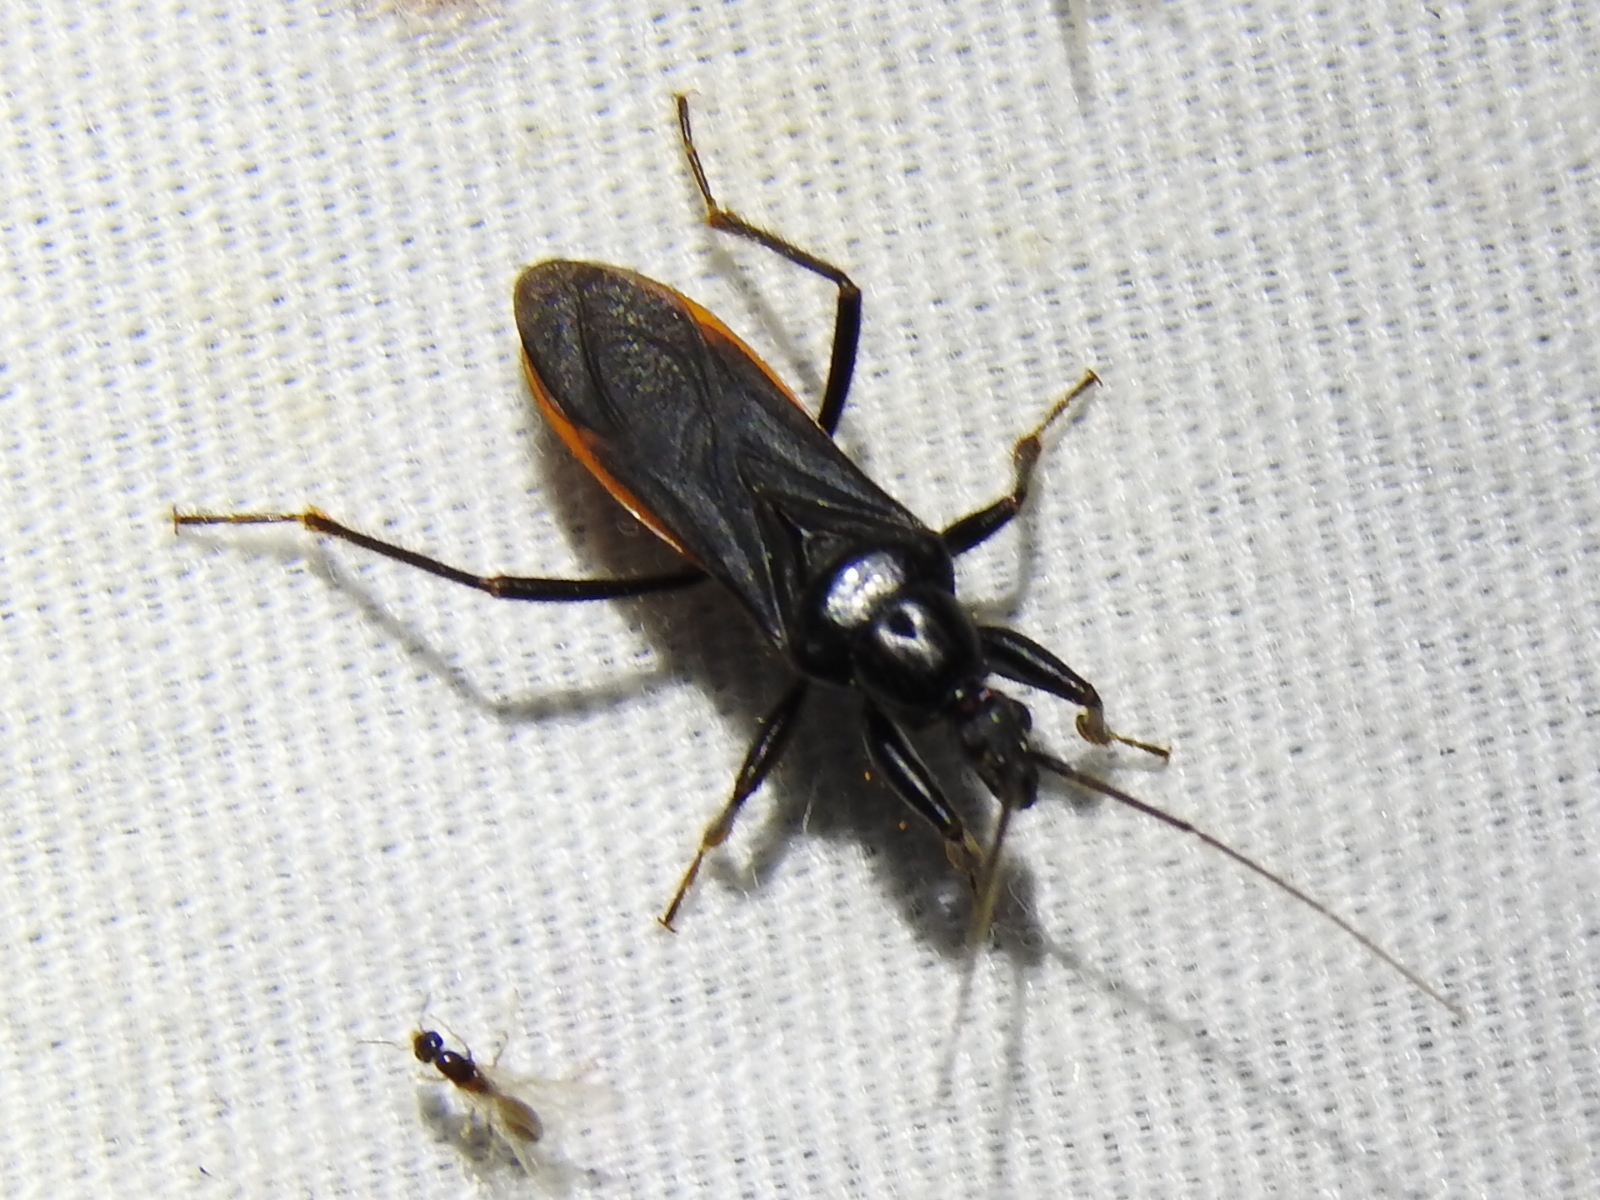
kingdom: Animalia
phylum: Arthropoda
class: Insecta
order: Hemiptera
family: Reduviidae
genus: Melanolestes
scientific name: Melanolestes picipes
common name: Assassin bug
